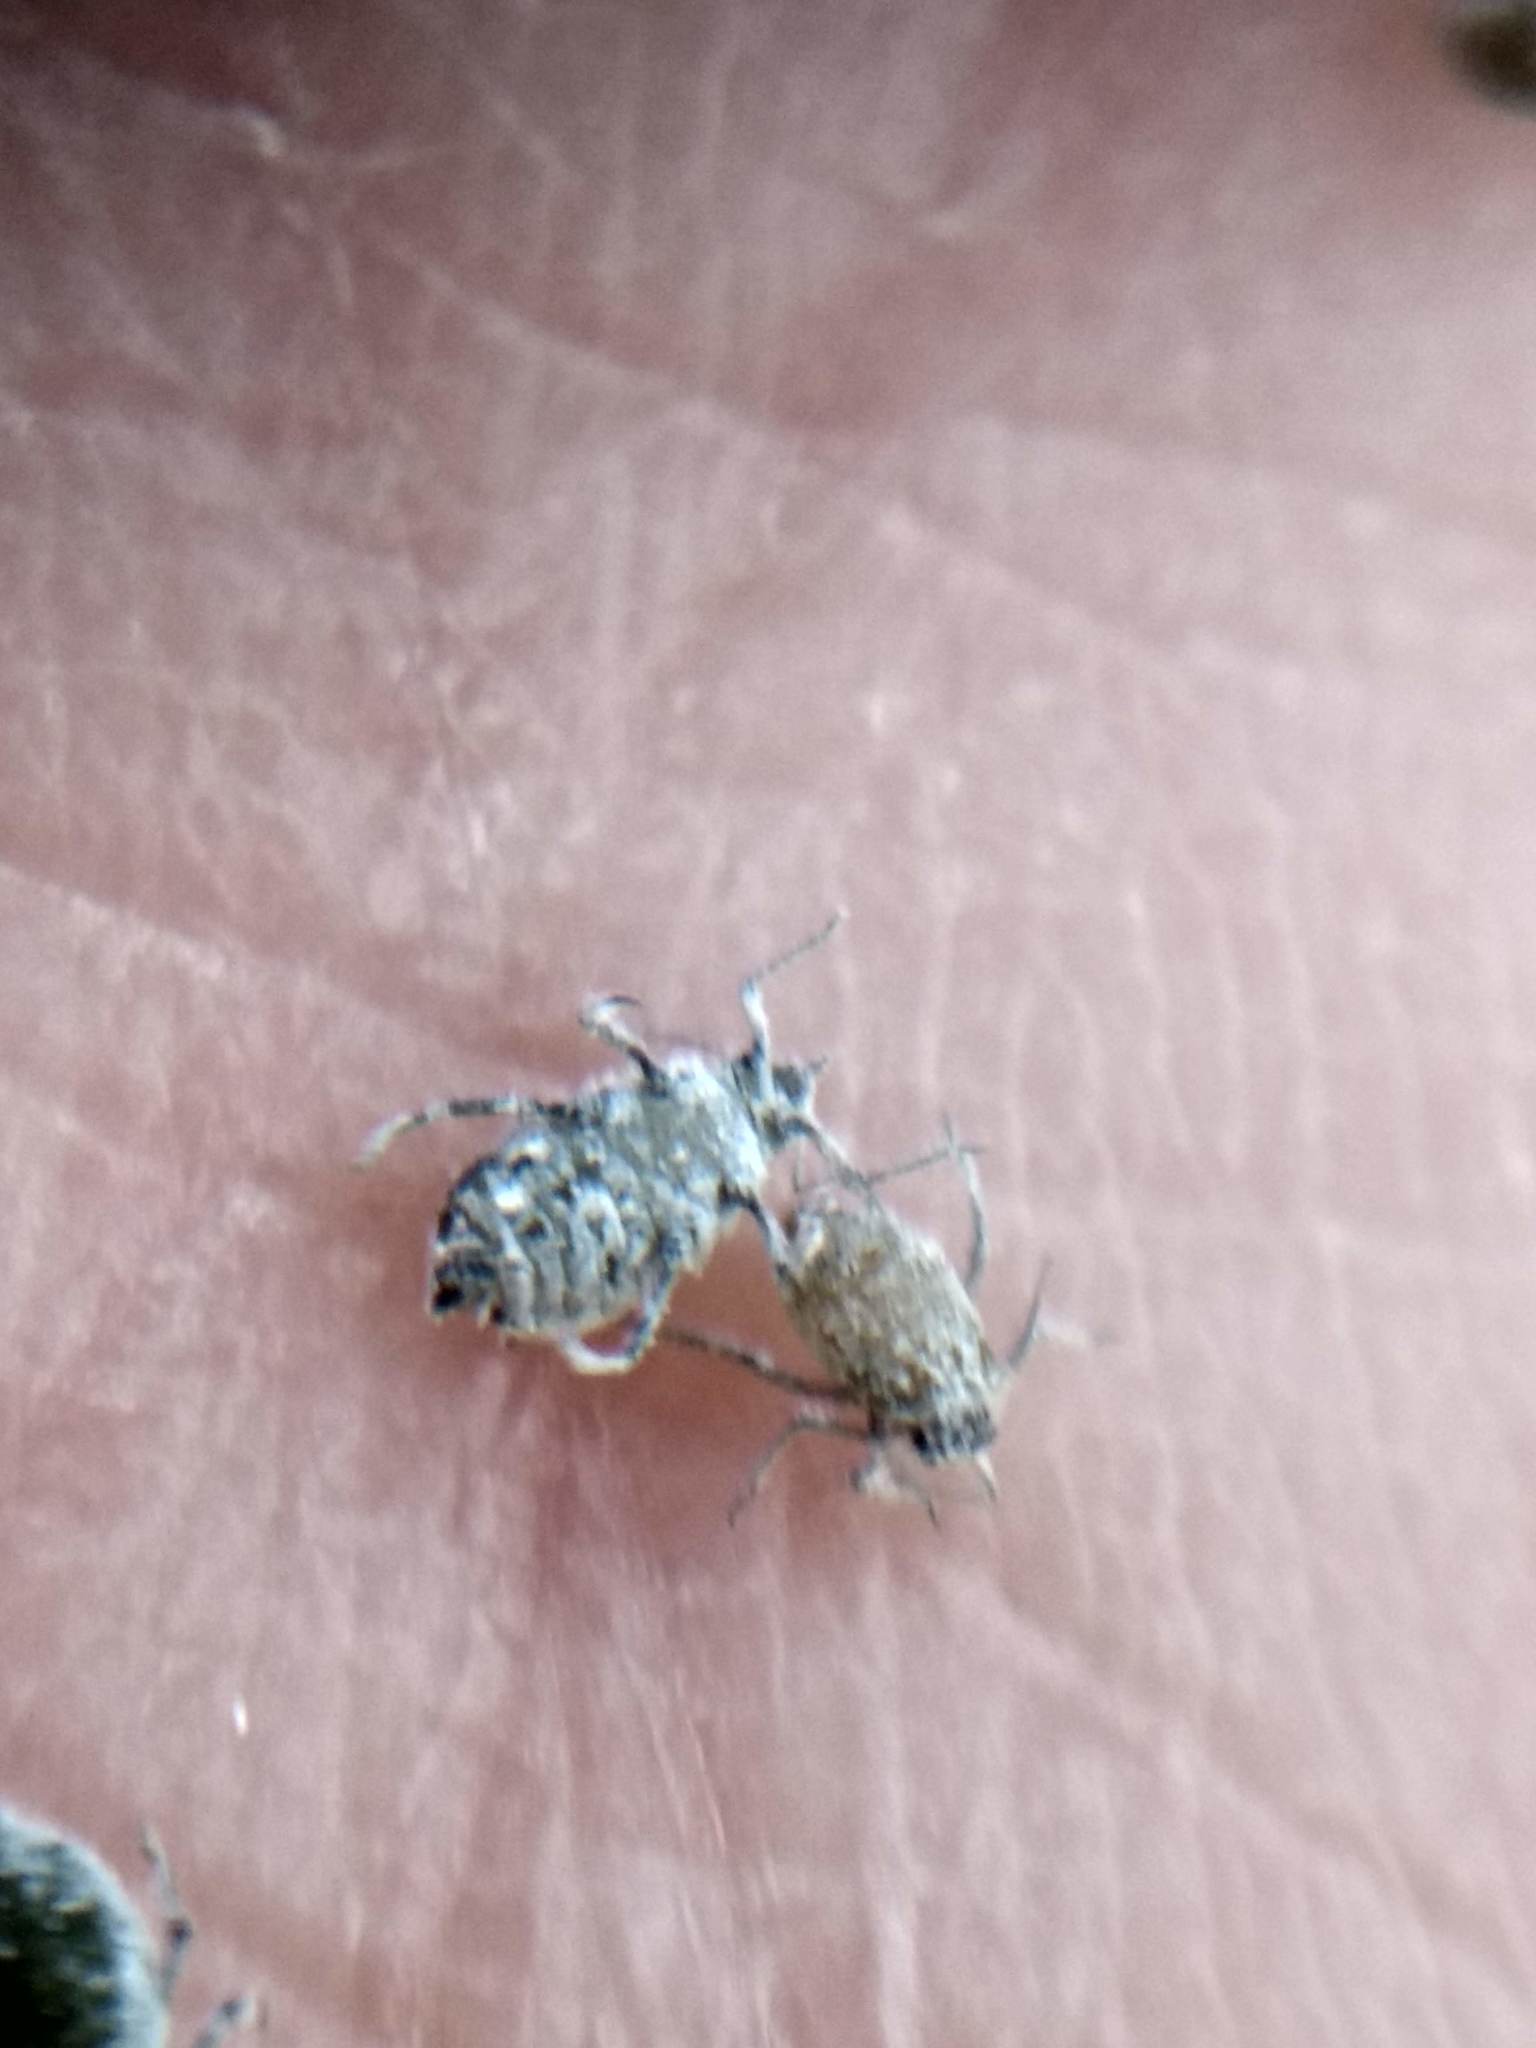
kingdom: Animalia
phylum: Arthropoda
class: Insecta
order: Hemiptera
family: Aphididae
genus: Brevicoryne
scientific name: Brevicoryne brassicae
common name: Cabbage aphid
